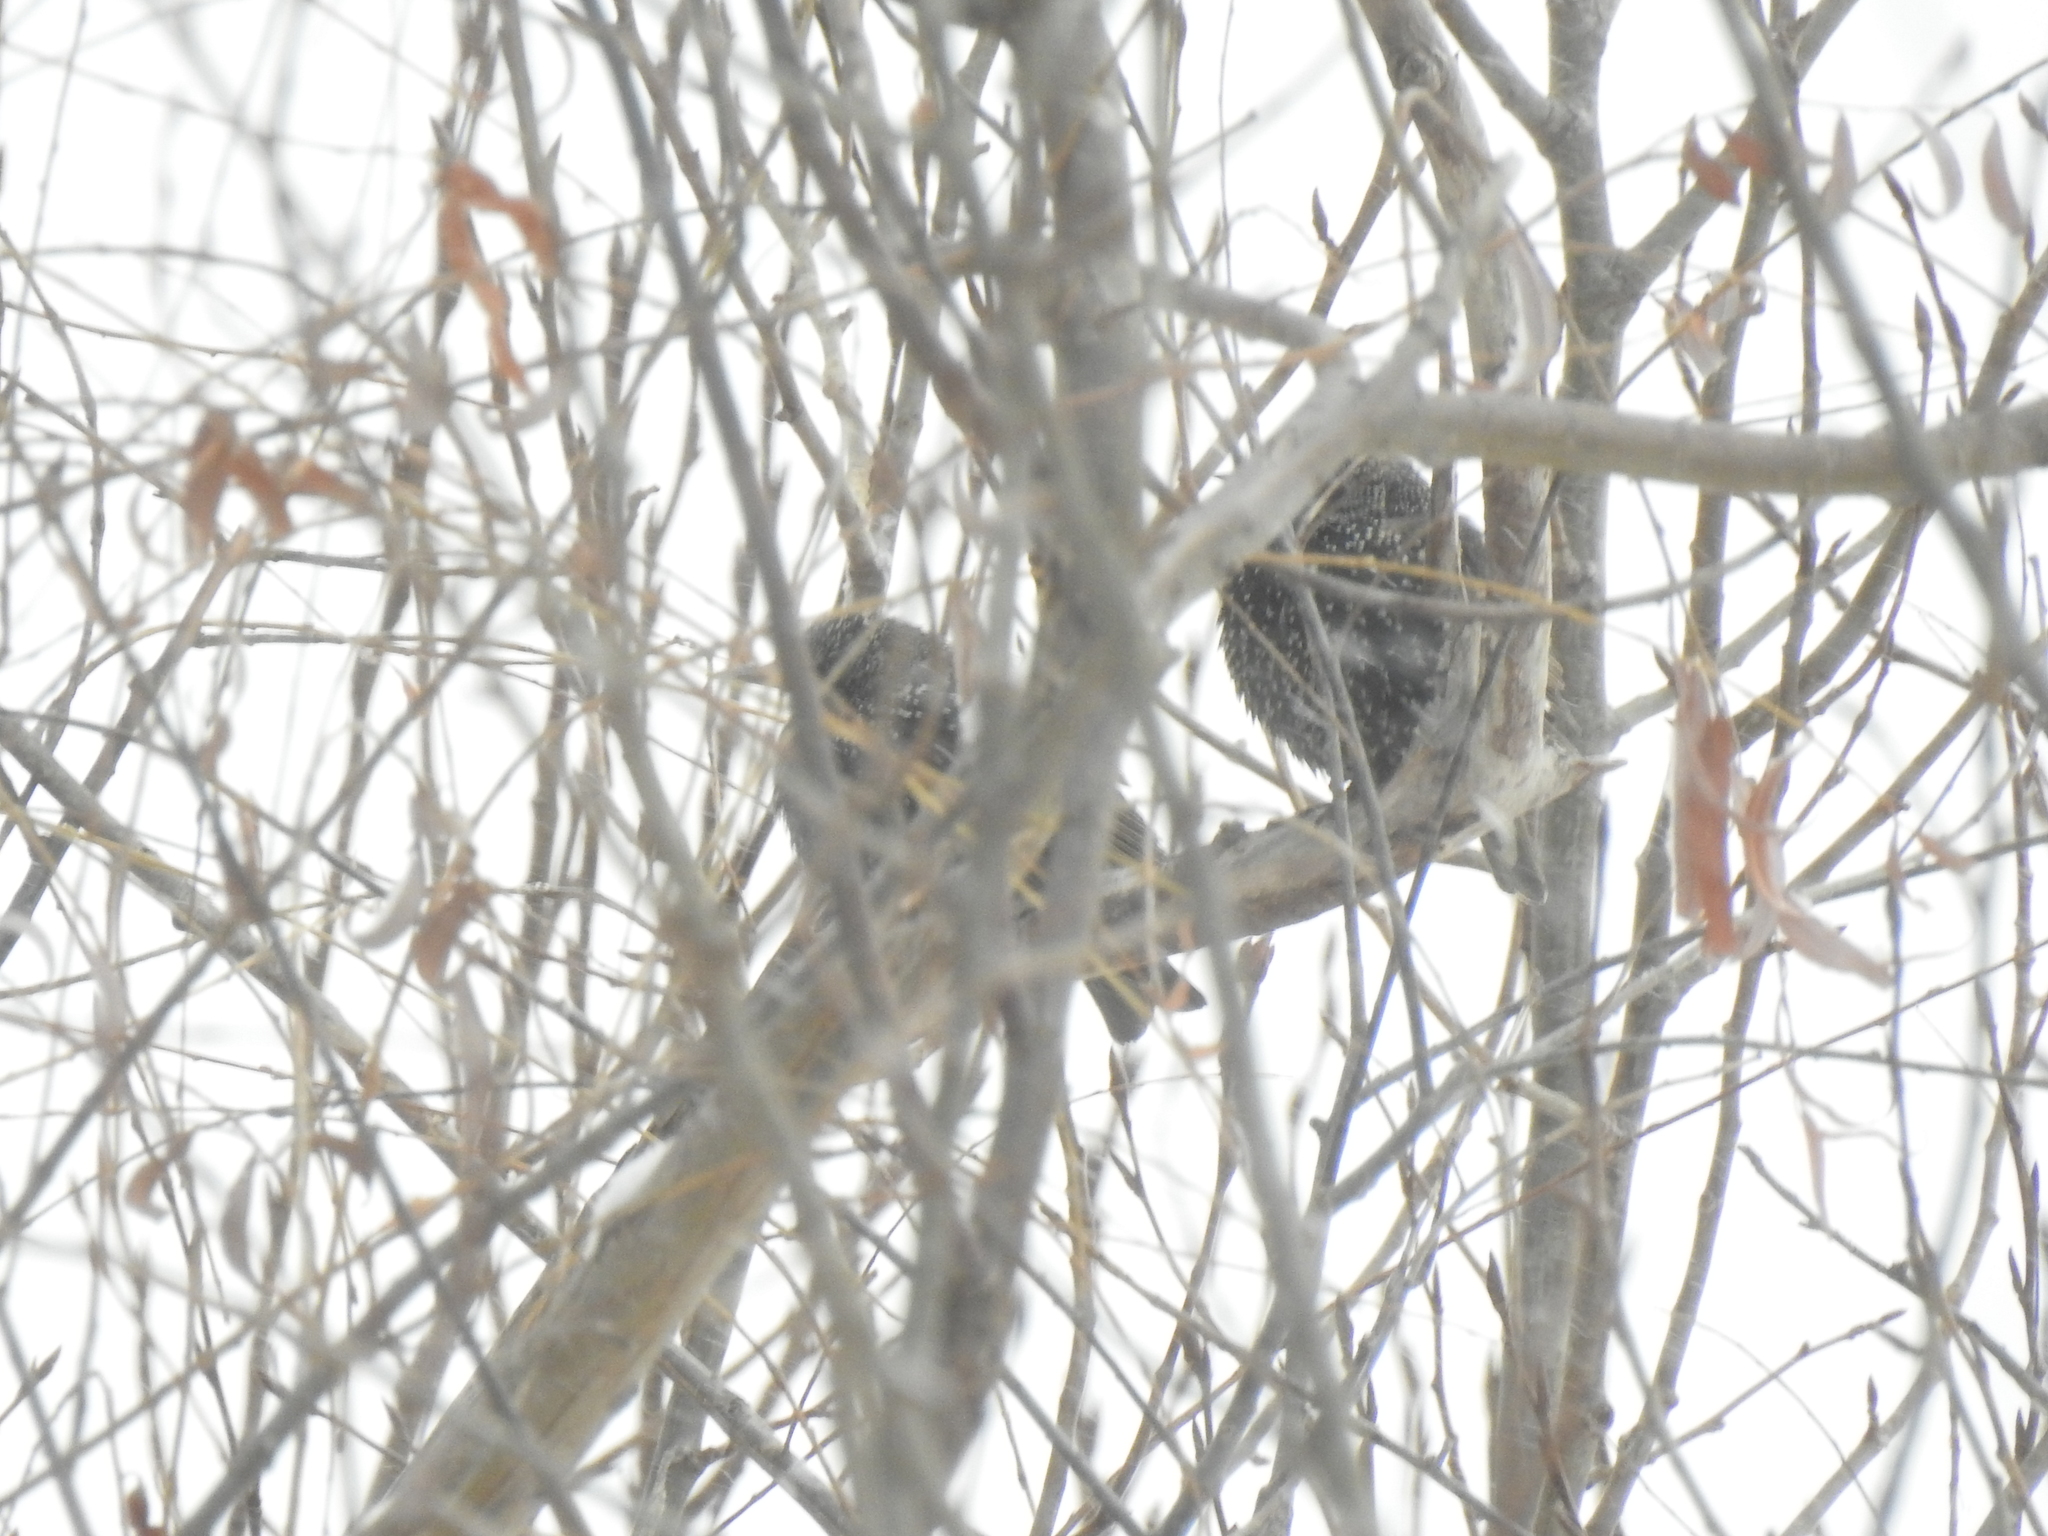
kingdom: Animalia
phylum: Chordata
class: Aves
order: Passeriformes
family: Sturnidae
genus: Sturnus
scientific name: Sturnus vulgaris
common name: Common starling
